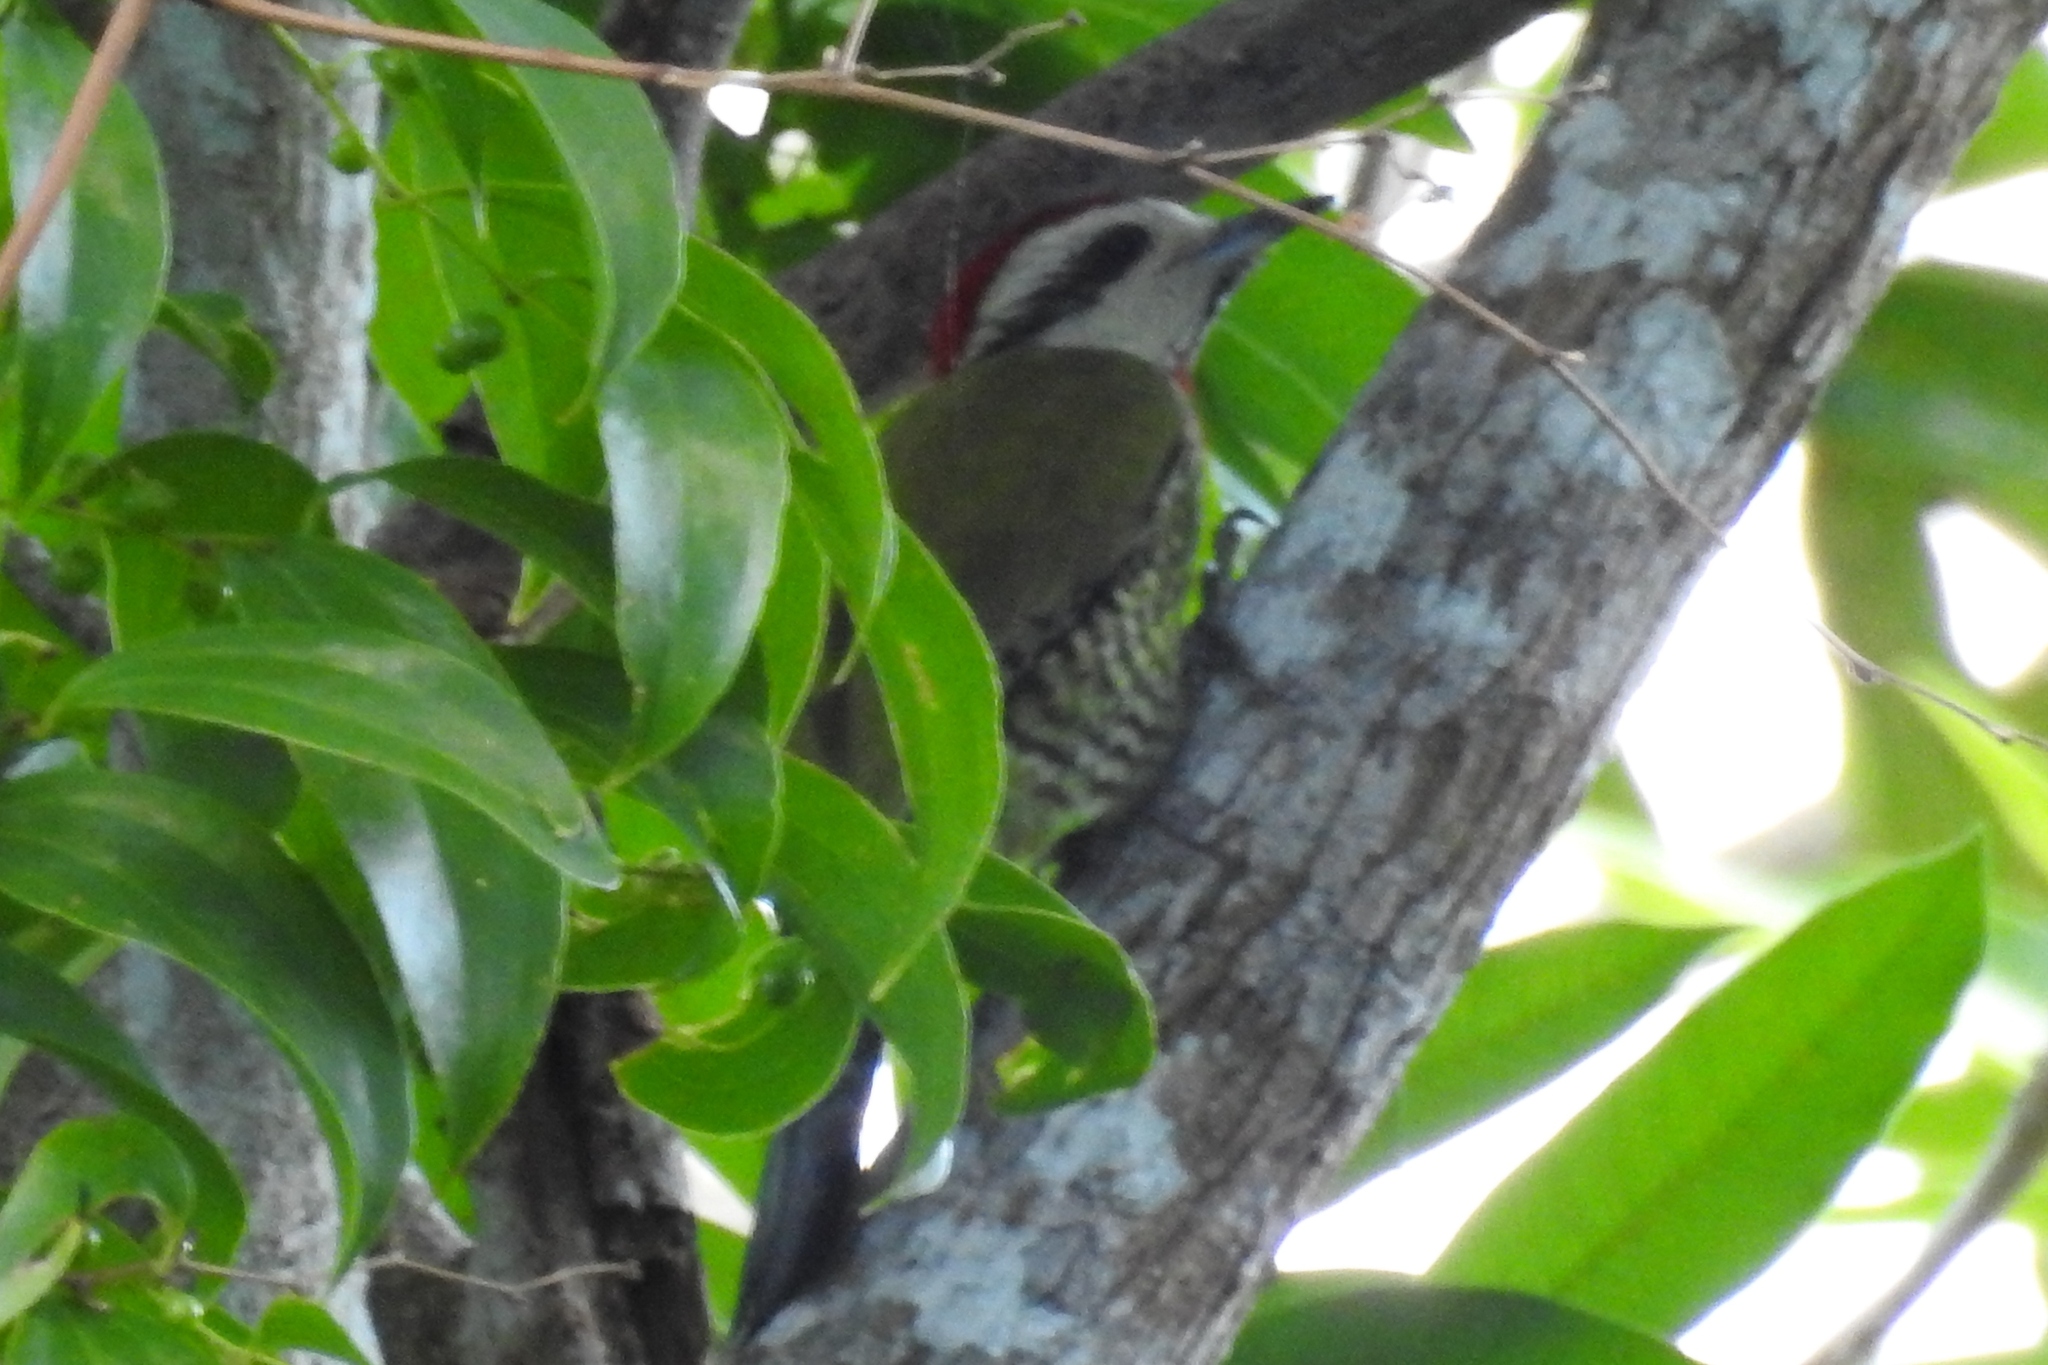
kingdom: Animalia
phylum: Chordata
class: Aves
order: Piciformes
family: Picidae
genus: Xiphidiopicus
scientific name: Xiphidiopicus percussus
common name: Cuban green woodpecker
